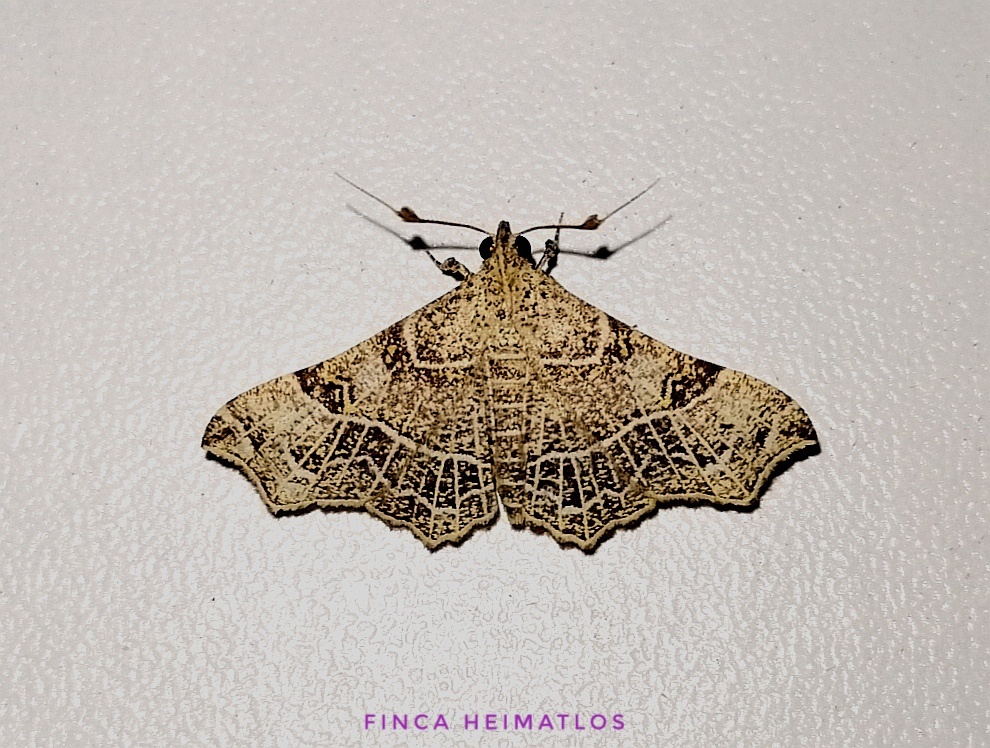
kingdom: Animalia
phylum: Arthropoda
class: Insecta
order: Lepidoptera
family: Erebidae
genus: Periphrage
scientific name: Periphrage barbatula
